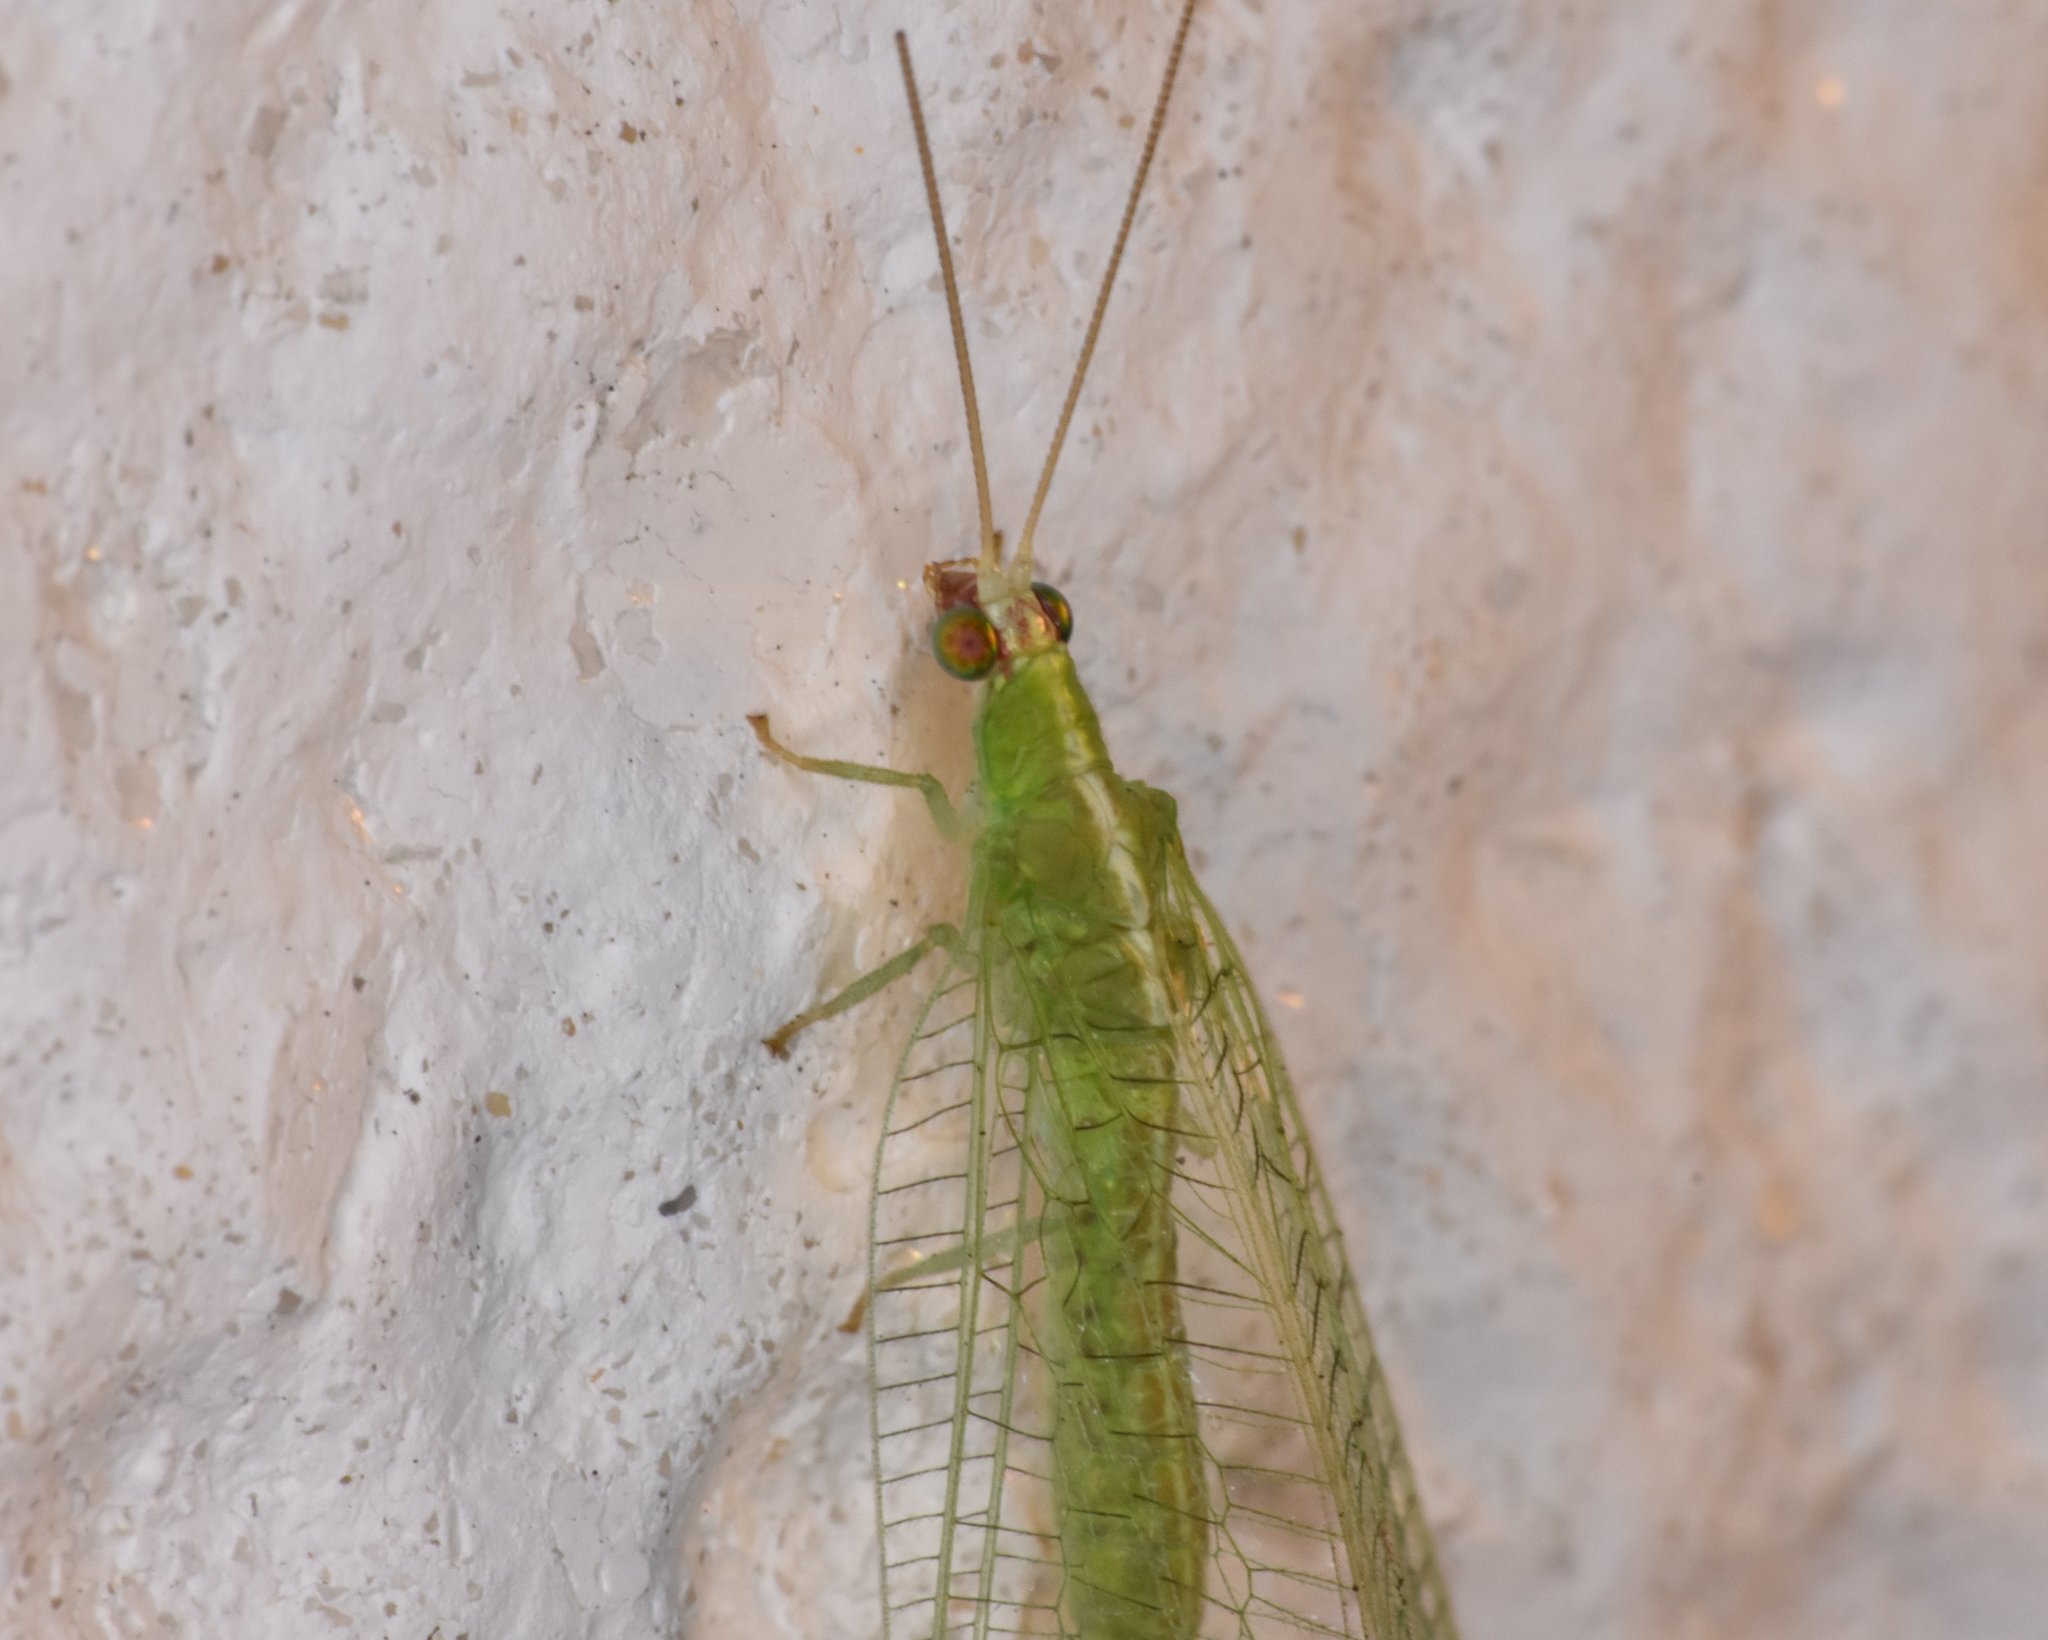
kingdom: Animalia
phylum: Arthropoda
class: Insecta
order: Neuroptera
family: Chrysopidae
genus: Chrysopodes
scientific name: Chrysopodes collaris
